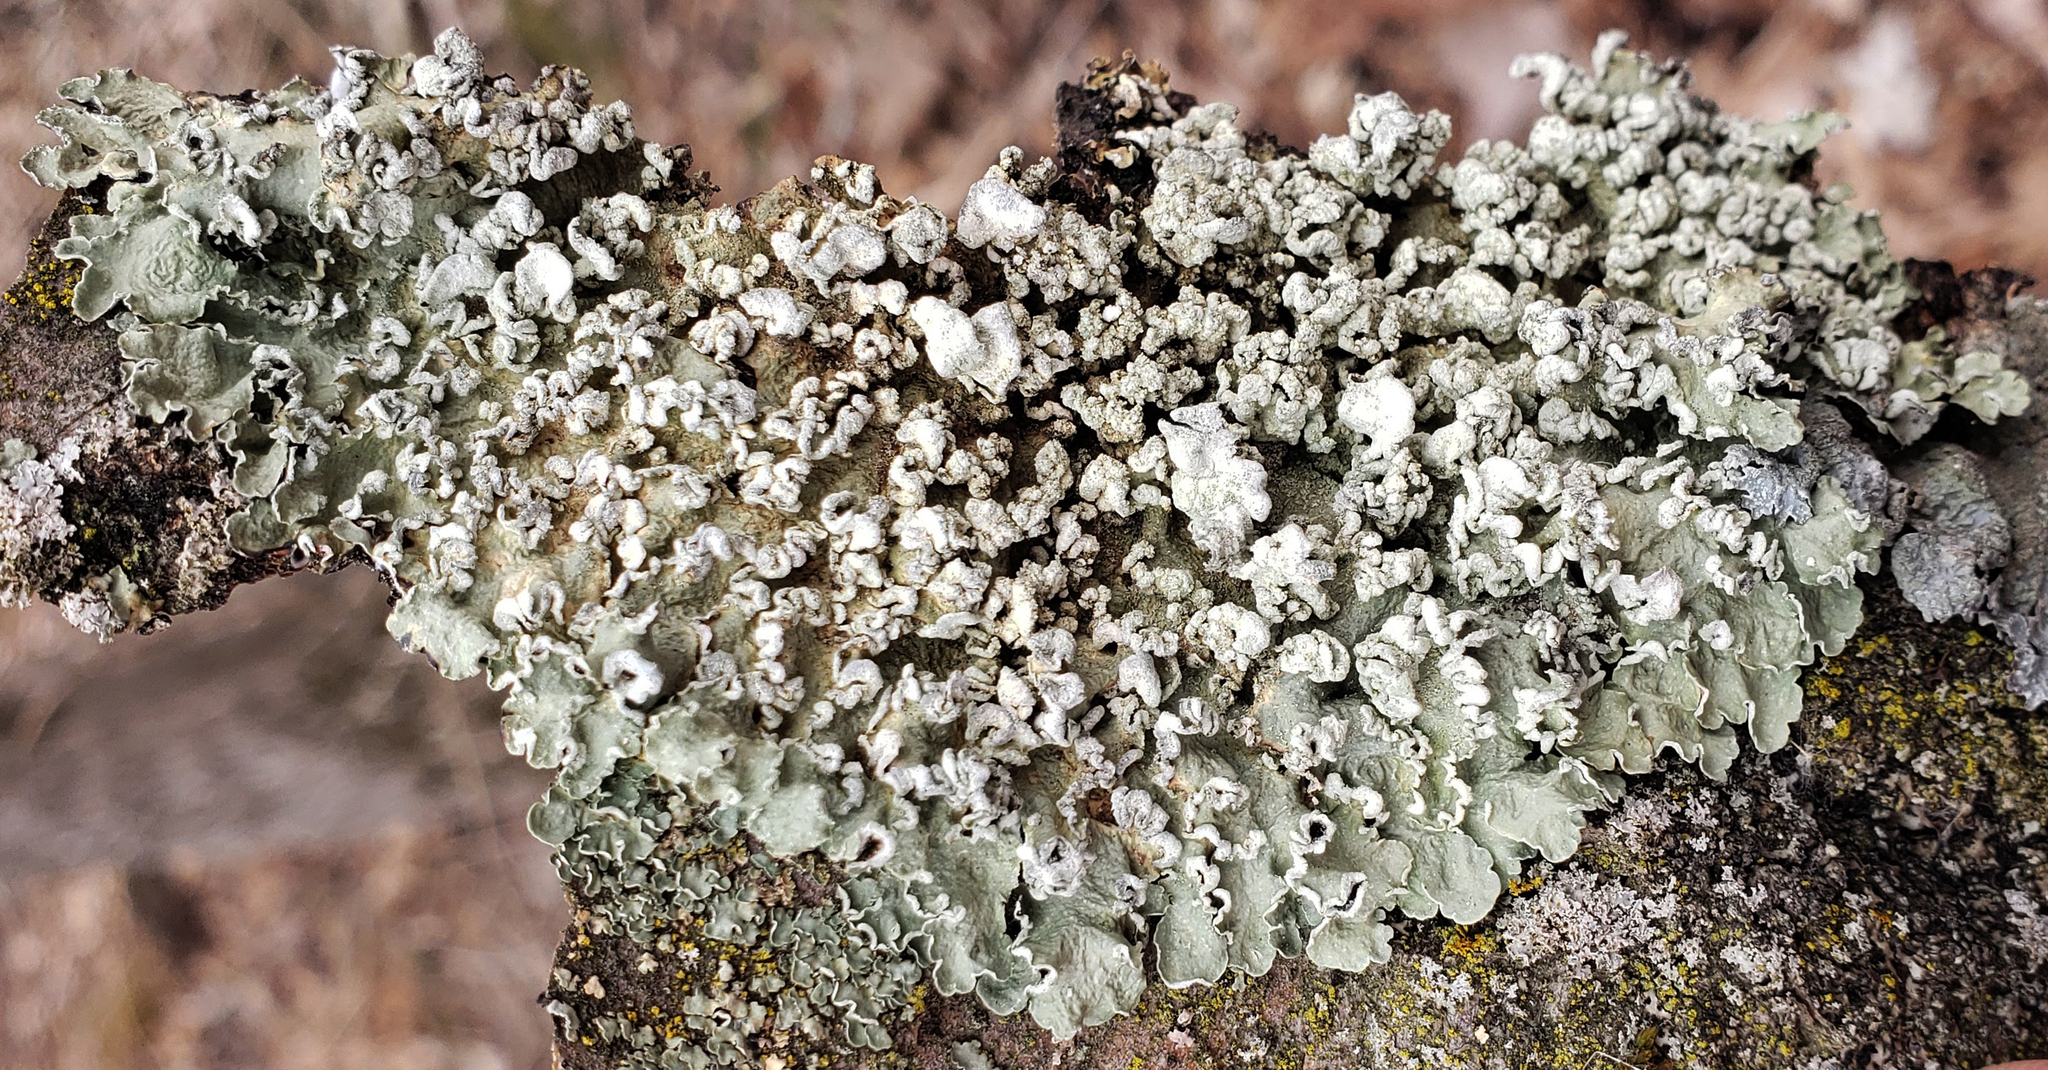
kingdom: Fungi
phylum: Ascomycota
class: Lecanoromycetes
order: Lecanorales
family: Parmeliaceae
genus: Flavopunctelia
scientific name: Flavopunctelia soredica
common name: Powder-edged speckled greenshield
